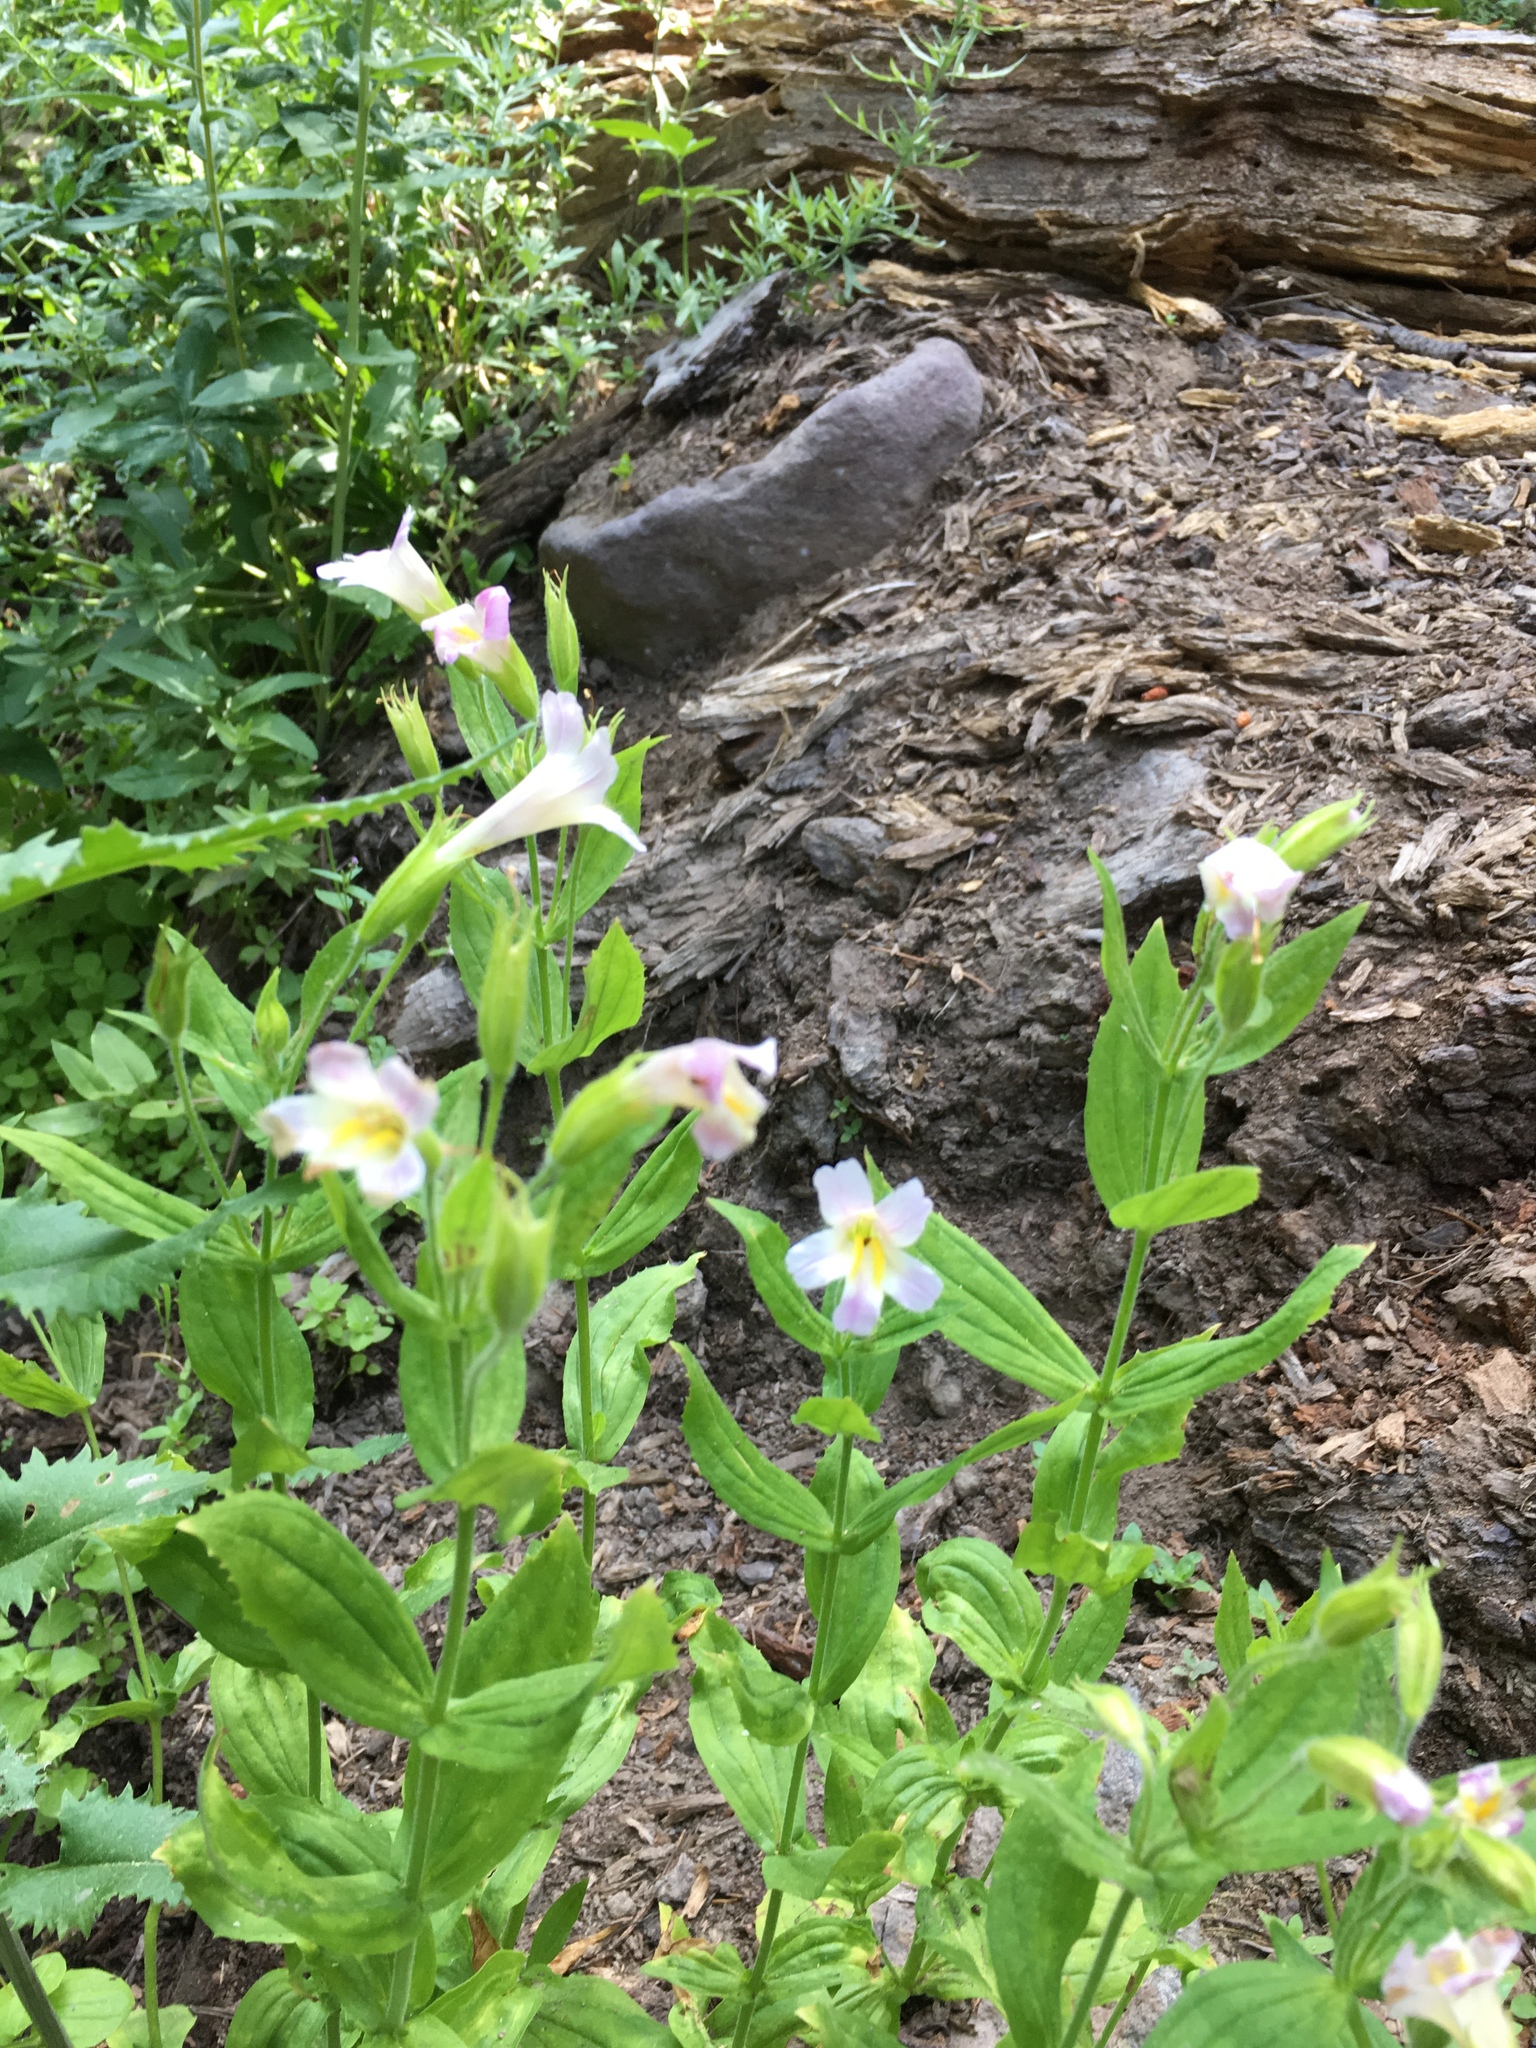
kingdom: Plantae
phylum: Tracheophyta
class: Magnoliopsida
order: Lamiales
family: Phrymaceae
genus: Erythranthe
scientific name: Erythranthe erubescens
